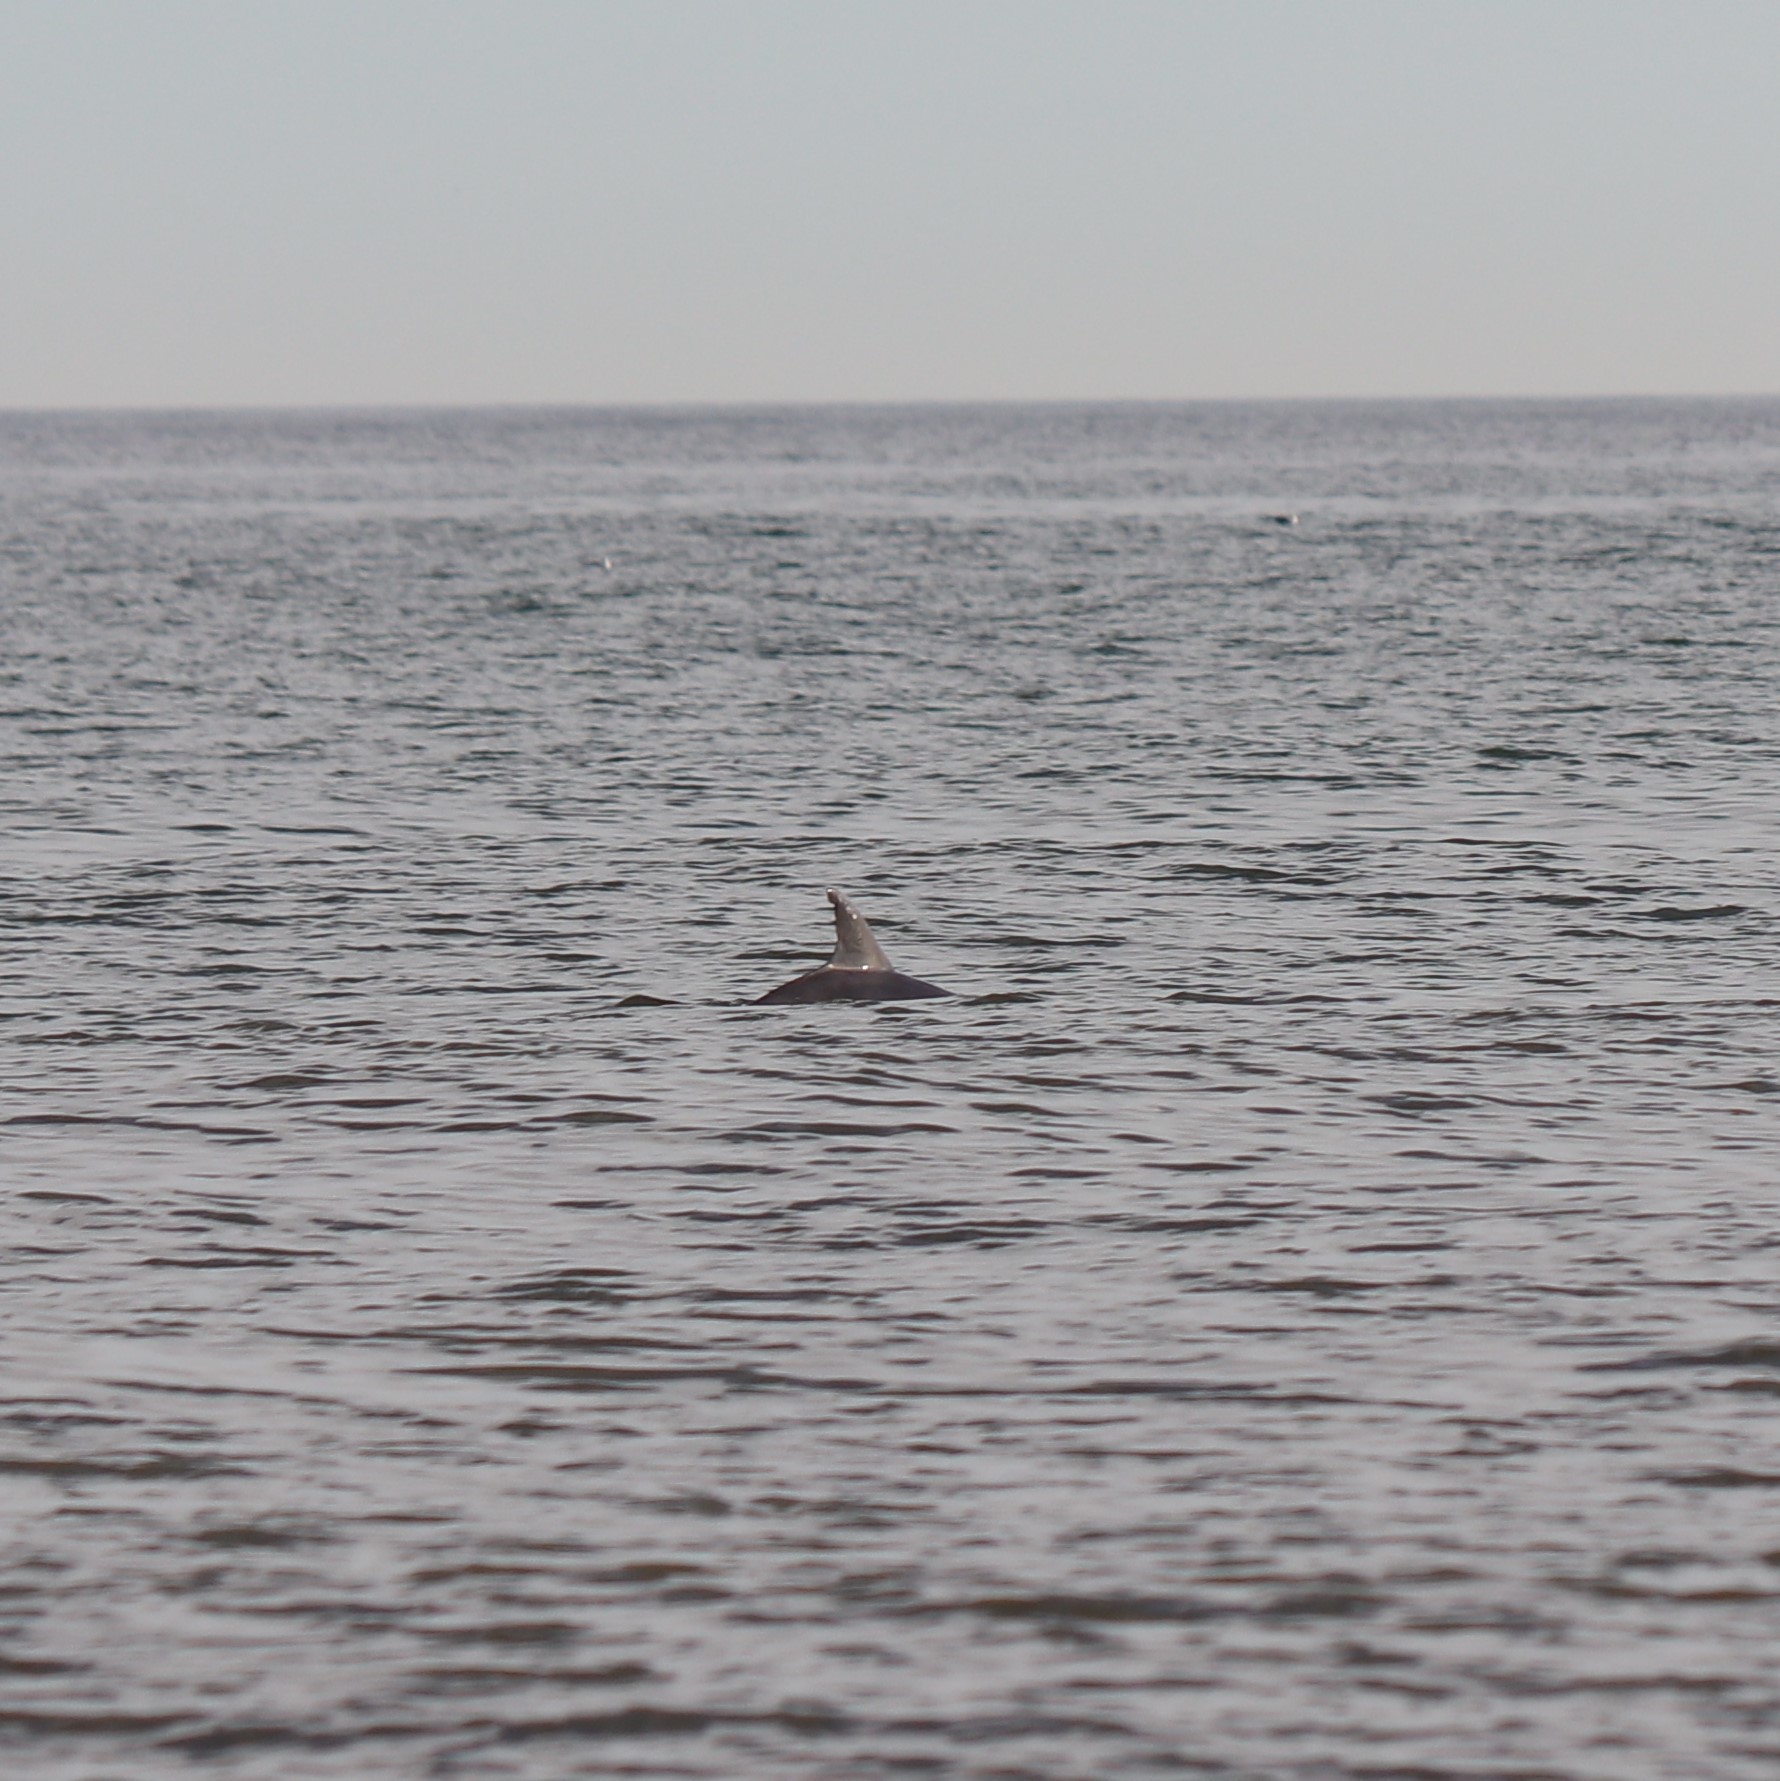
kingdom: Animalia
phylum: Chordata
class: Mammalia
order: Cetacea
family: Delphinidae
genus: Tursiops
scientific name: Tursiops truncatus
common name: Bottlenose dolphin
